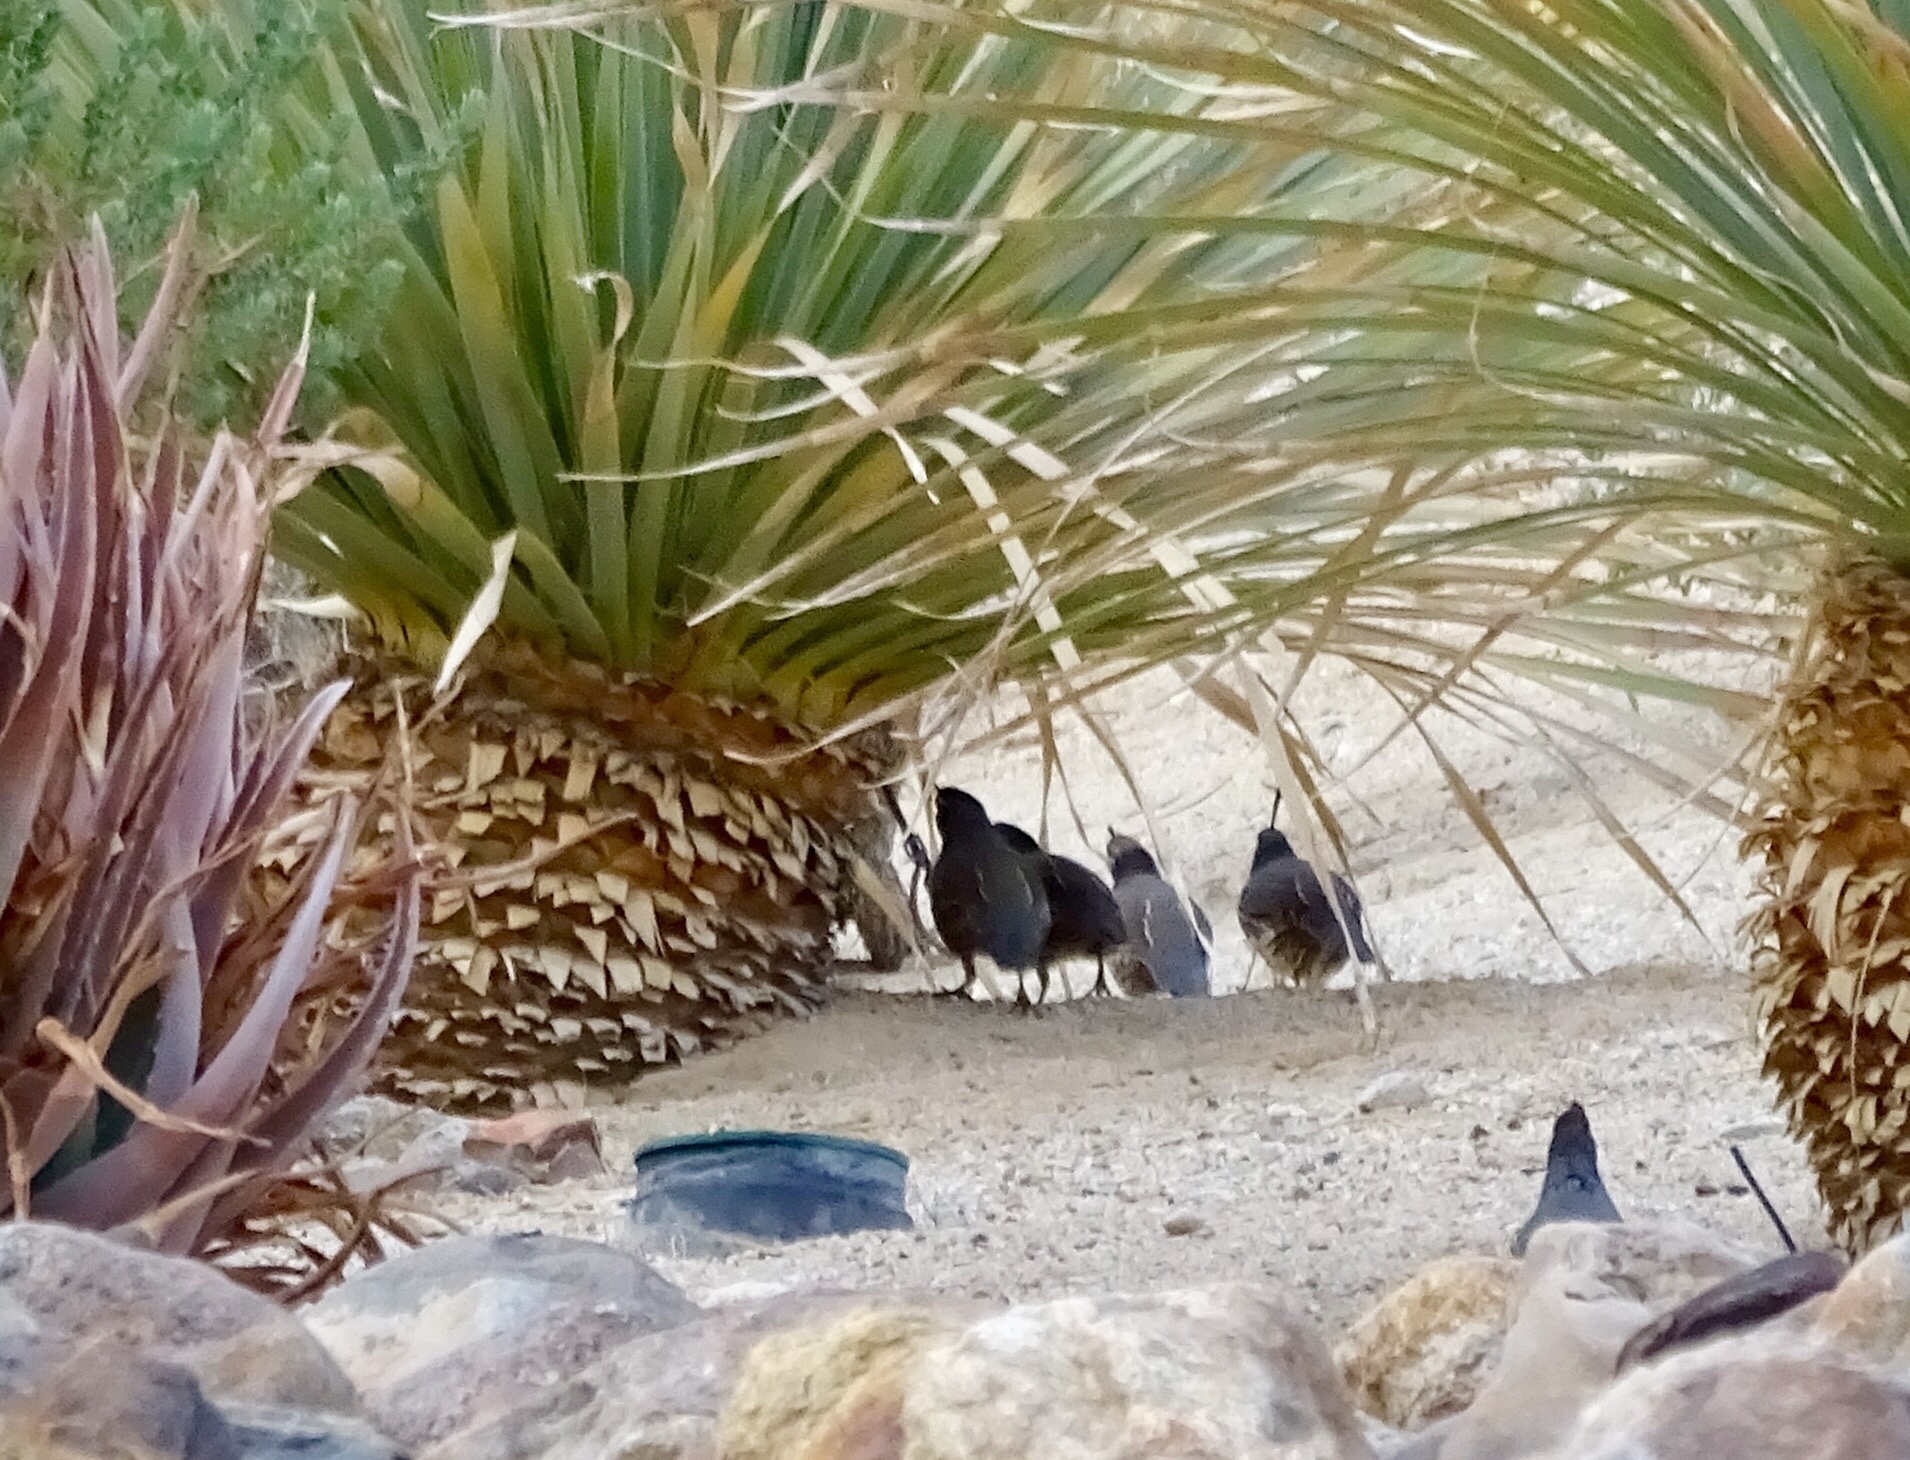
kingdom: Animalia
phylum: Chordata
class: Aves
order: Galliformes
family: Odontophoridae
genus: Callipepla
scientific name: Callipepla californica
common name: California quail
